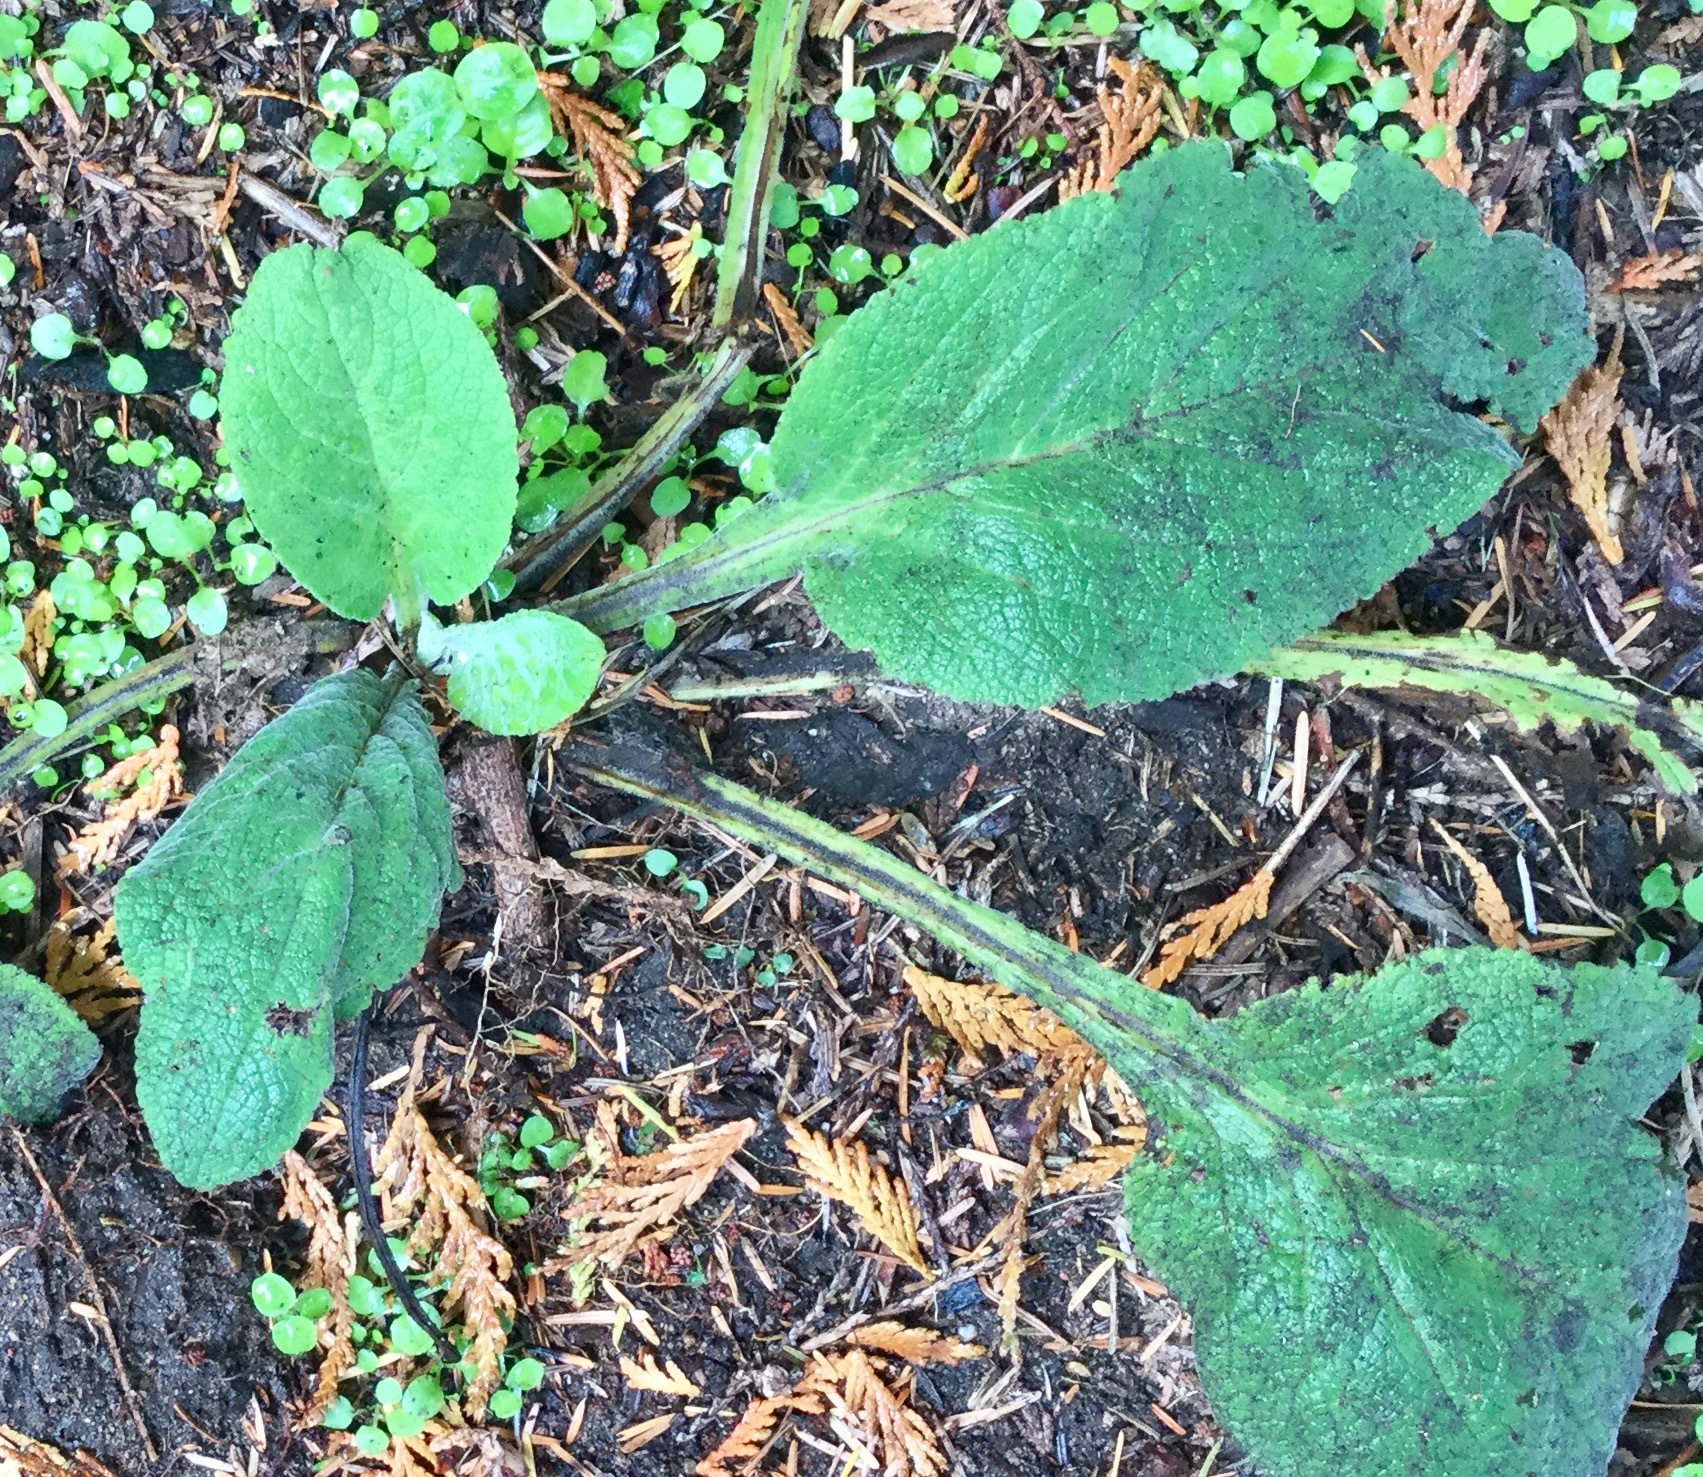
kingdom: Plantae
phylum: Tracheophyta
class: Magnoliopsida
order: Lamiales
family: Plantaginaceae
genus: Digitalis
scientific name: Digitalis purpurea
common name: Foxglove
